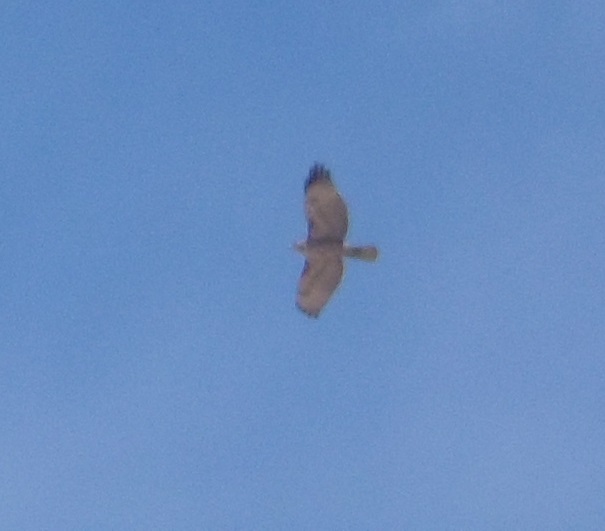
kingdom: Animalia
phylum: Chordata
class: Aves
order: Accipitriformes
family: Accipitridae
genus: Buteo
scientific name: Buteo jamaicensis
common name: Red-tailed hawk
